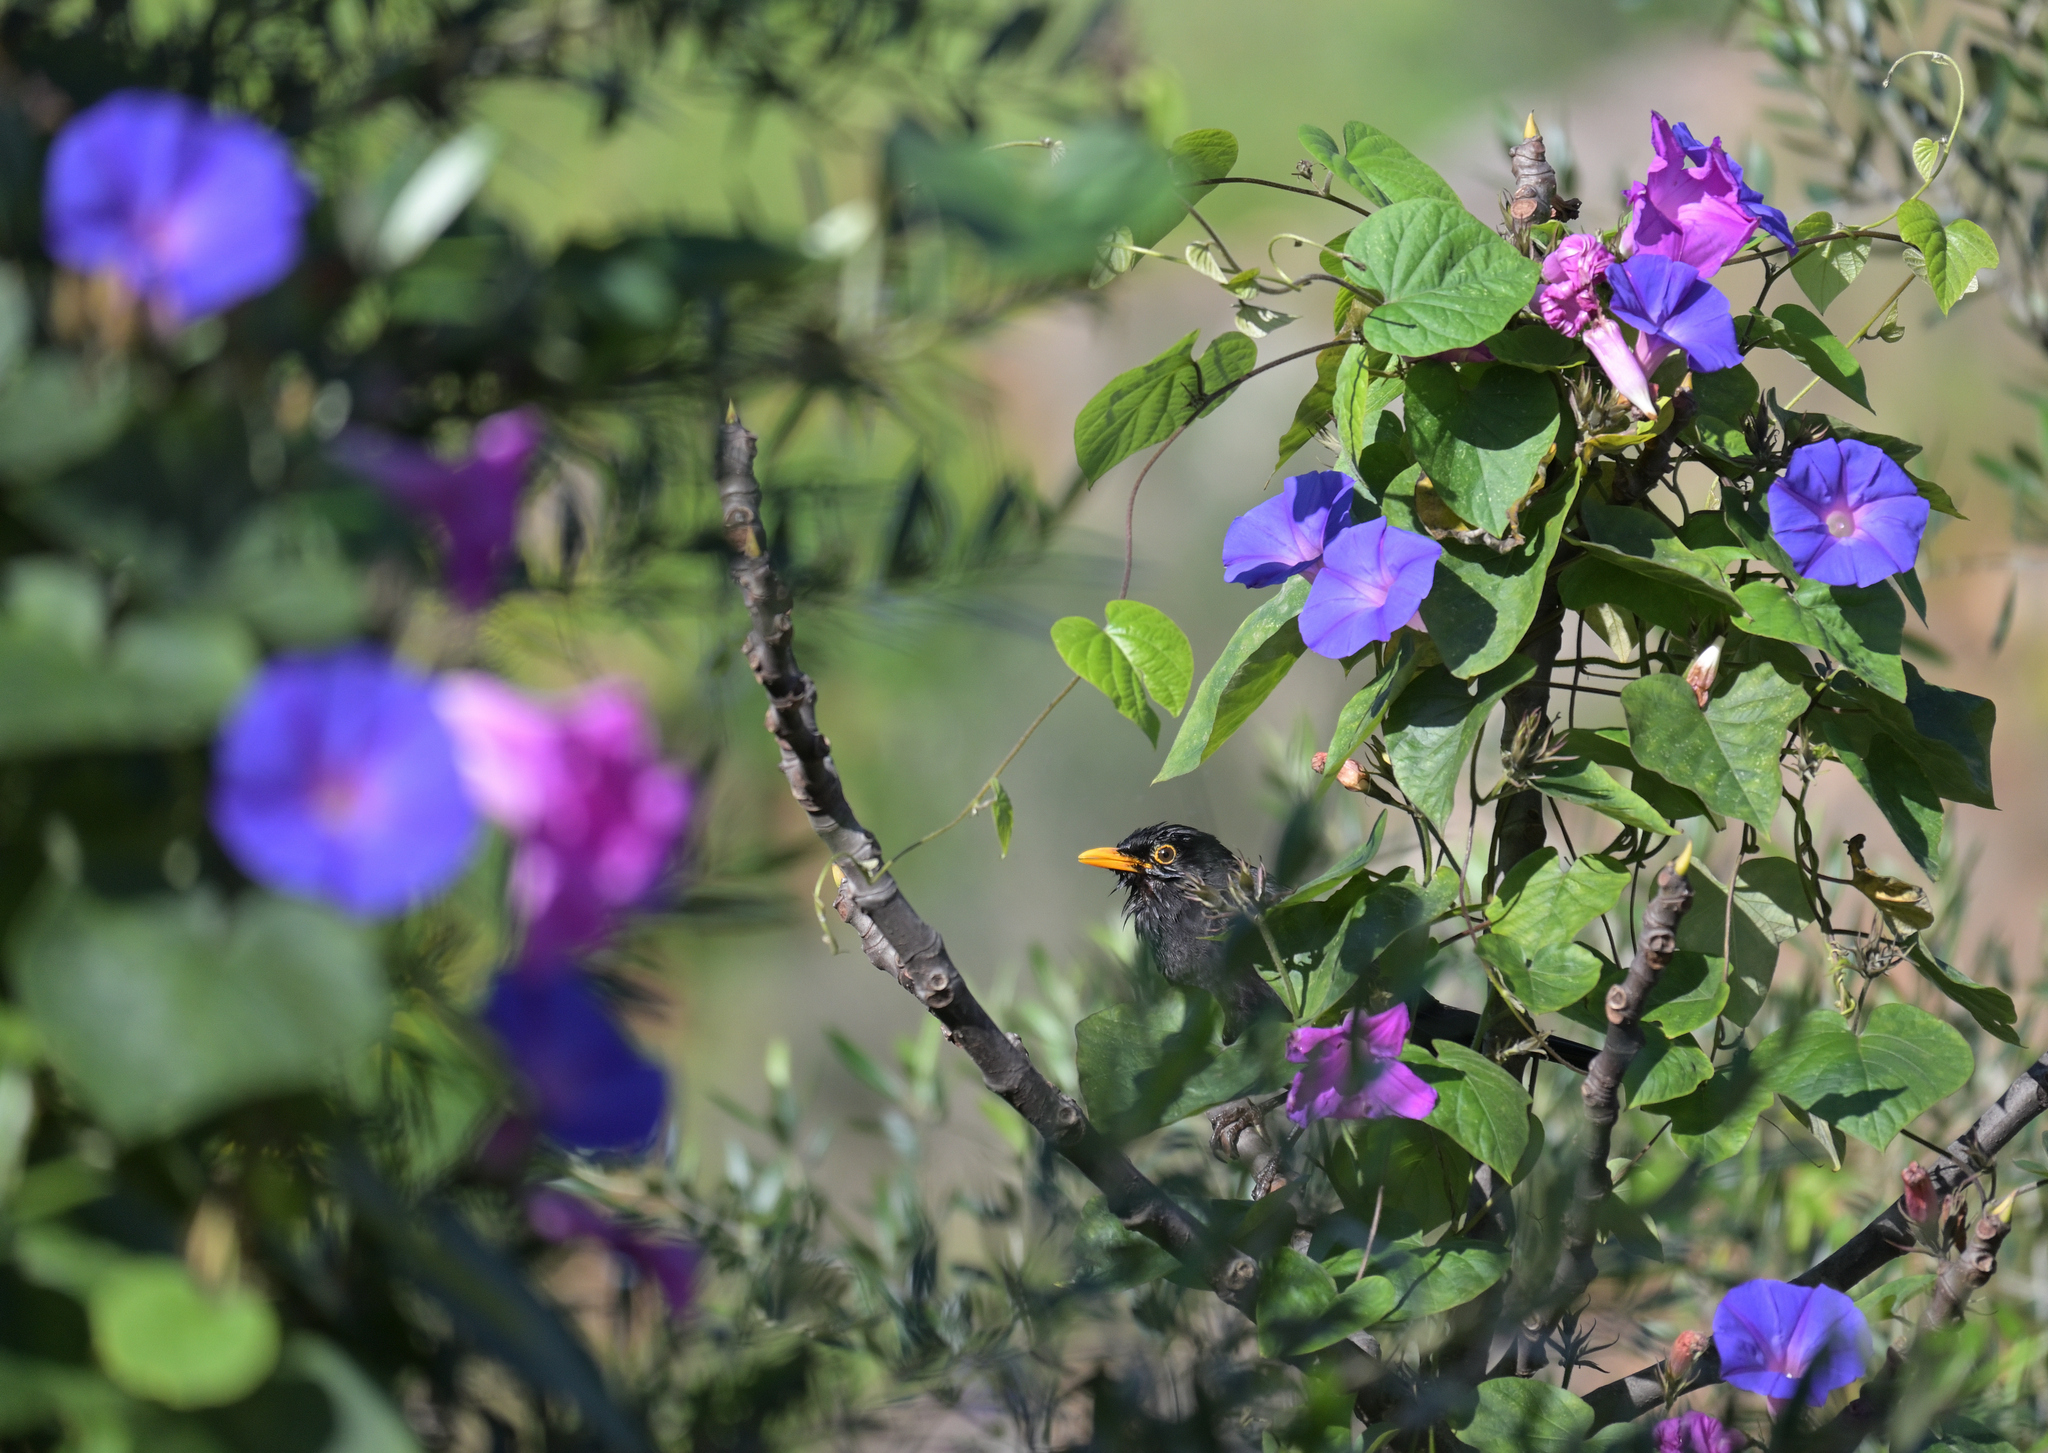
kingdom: Animalia
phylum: Chordata
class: Aves
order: Passeriformes
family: Turdidae
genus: Turdus
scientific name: Turdus merula
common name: Common blackbird
